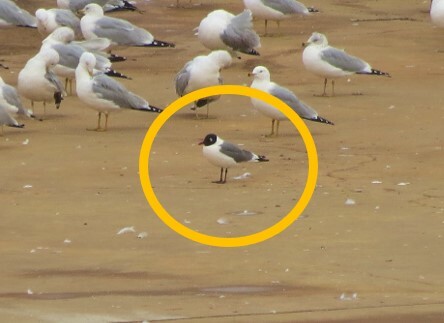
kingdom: Animalia
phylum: Chordata
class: Aves
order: Charadriiformes
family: Laridae
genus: Leucophaeus
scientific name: Leucophaeus pipixcan
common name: Franklin's gull
